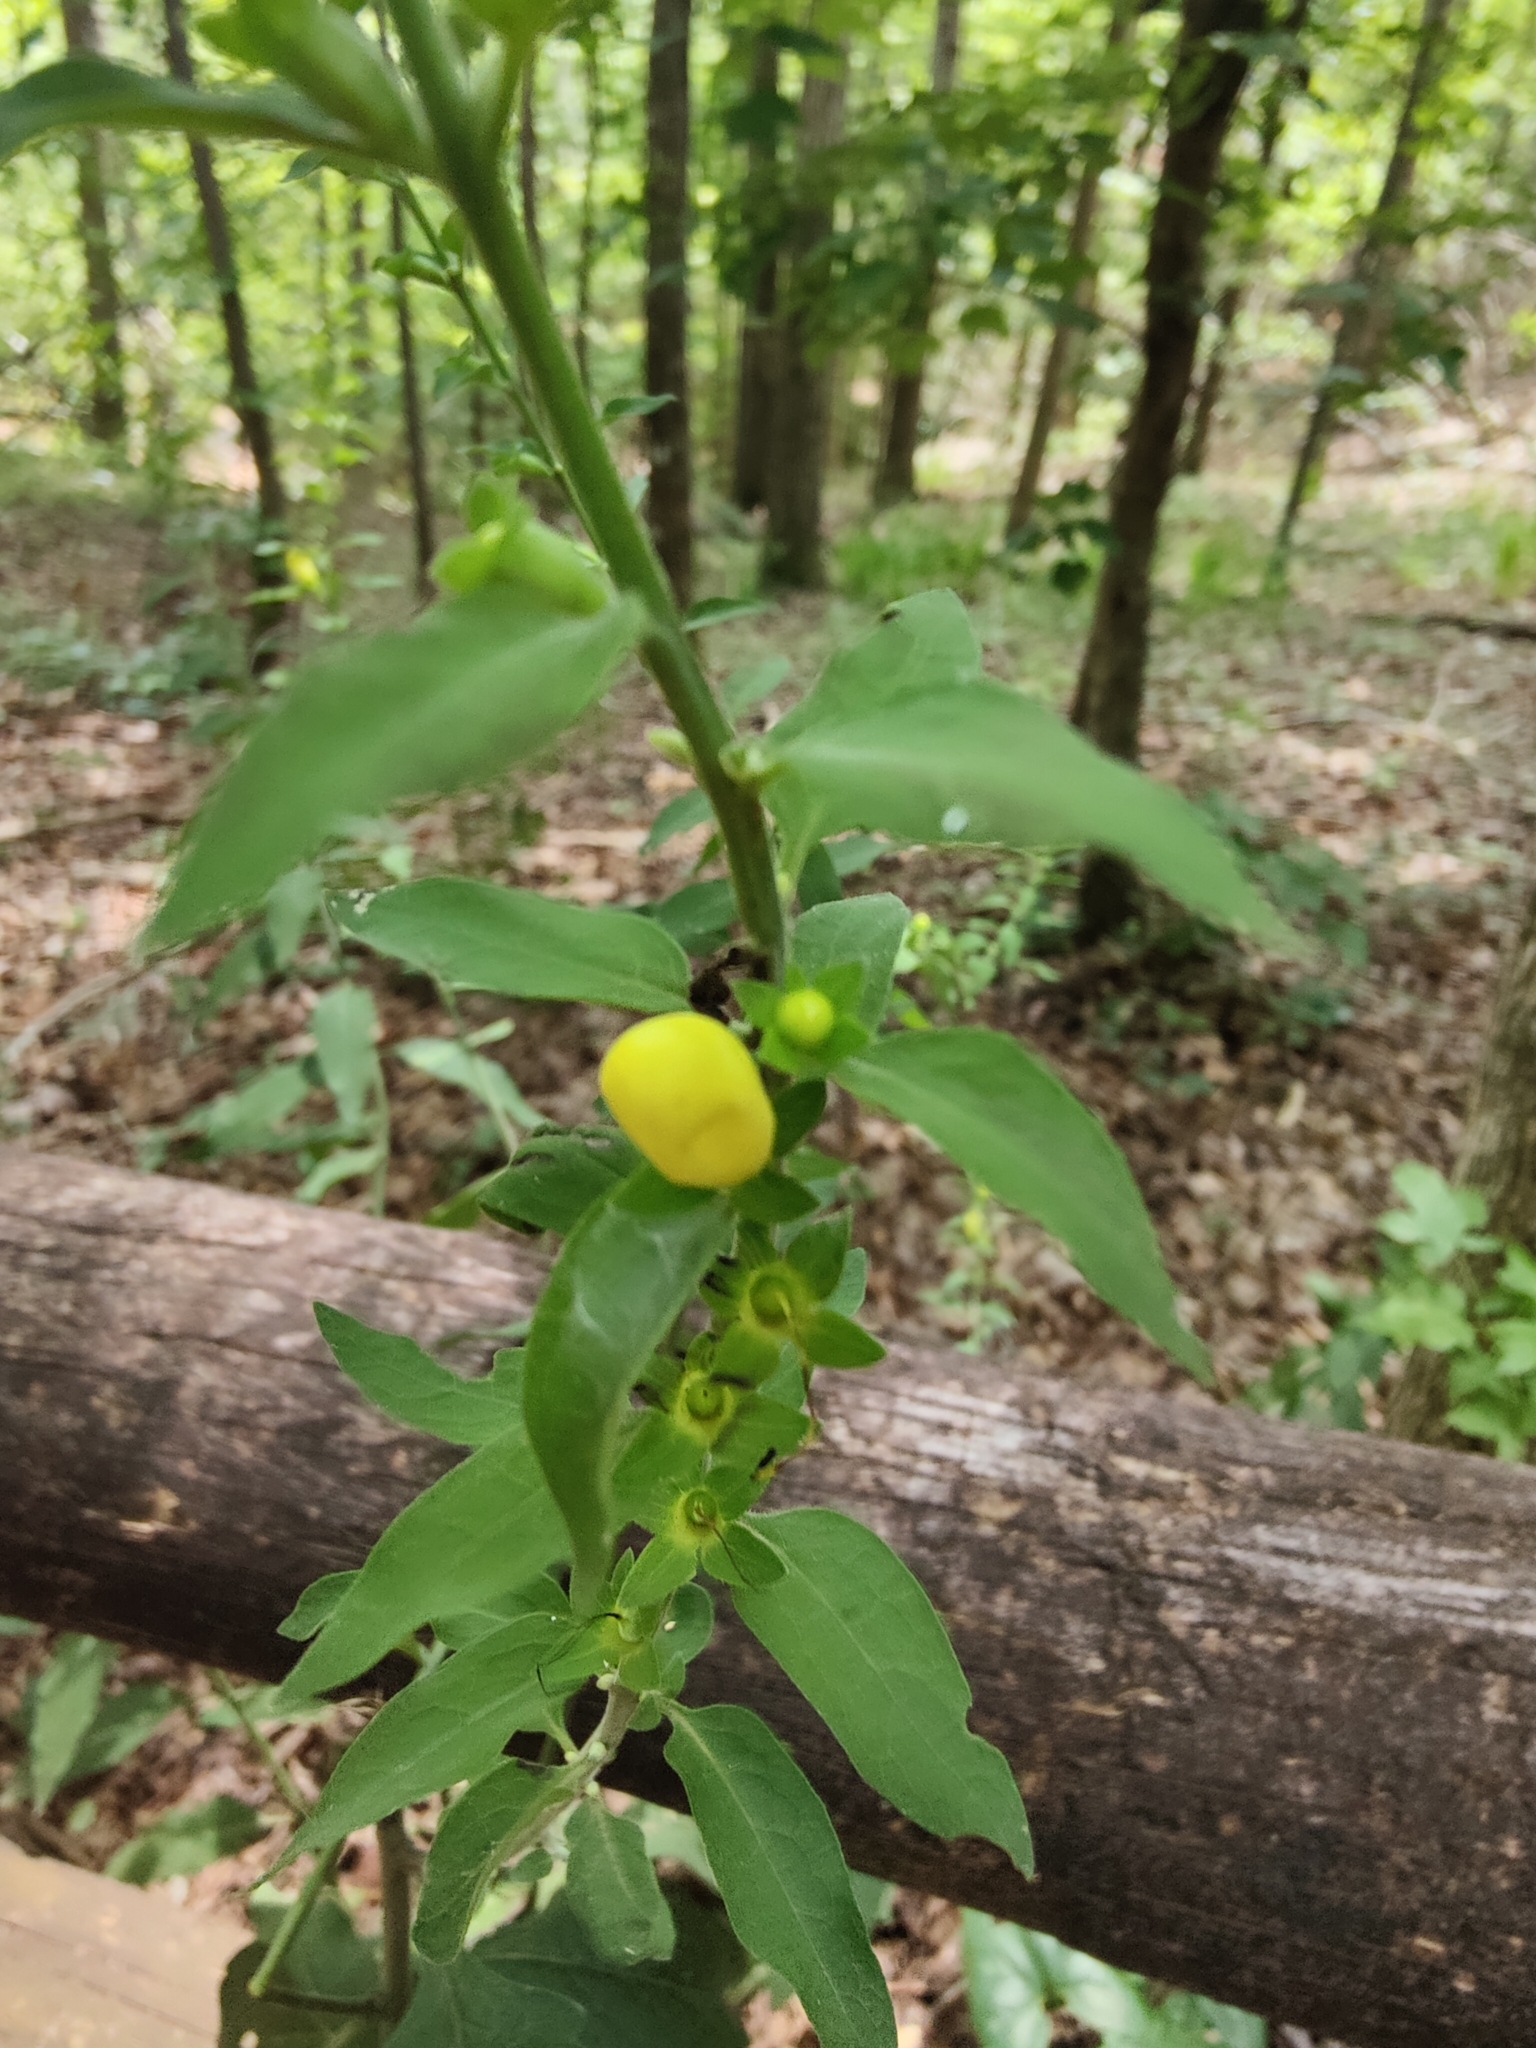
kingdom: Plantae
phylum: Tracheophyta
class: Magnoliopsida
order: Lamiales
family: Orobanchaceae
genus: Aureolaria
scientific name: Aureolaria virginica
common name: Downy false foxglove
